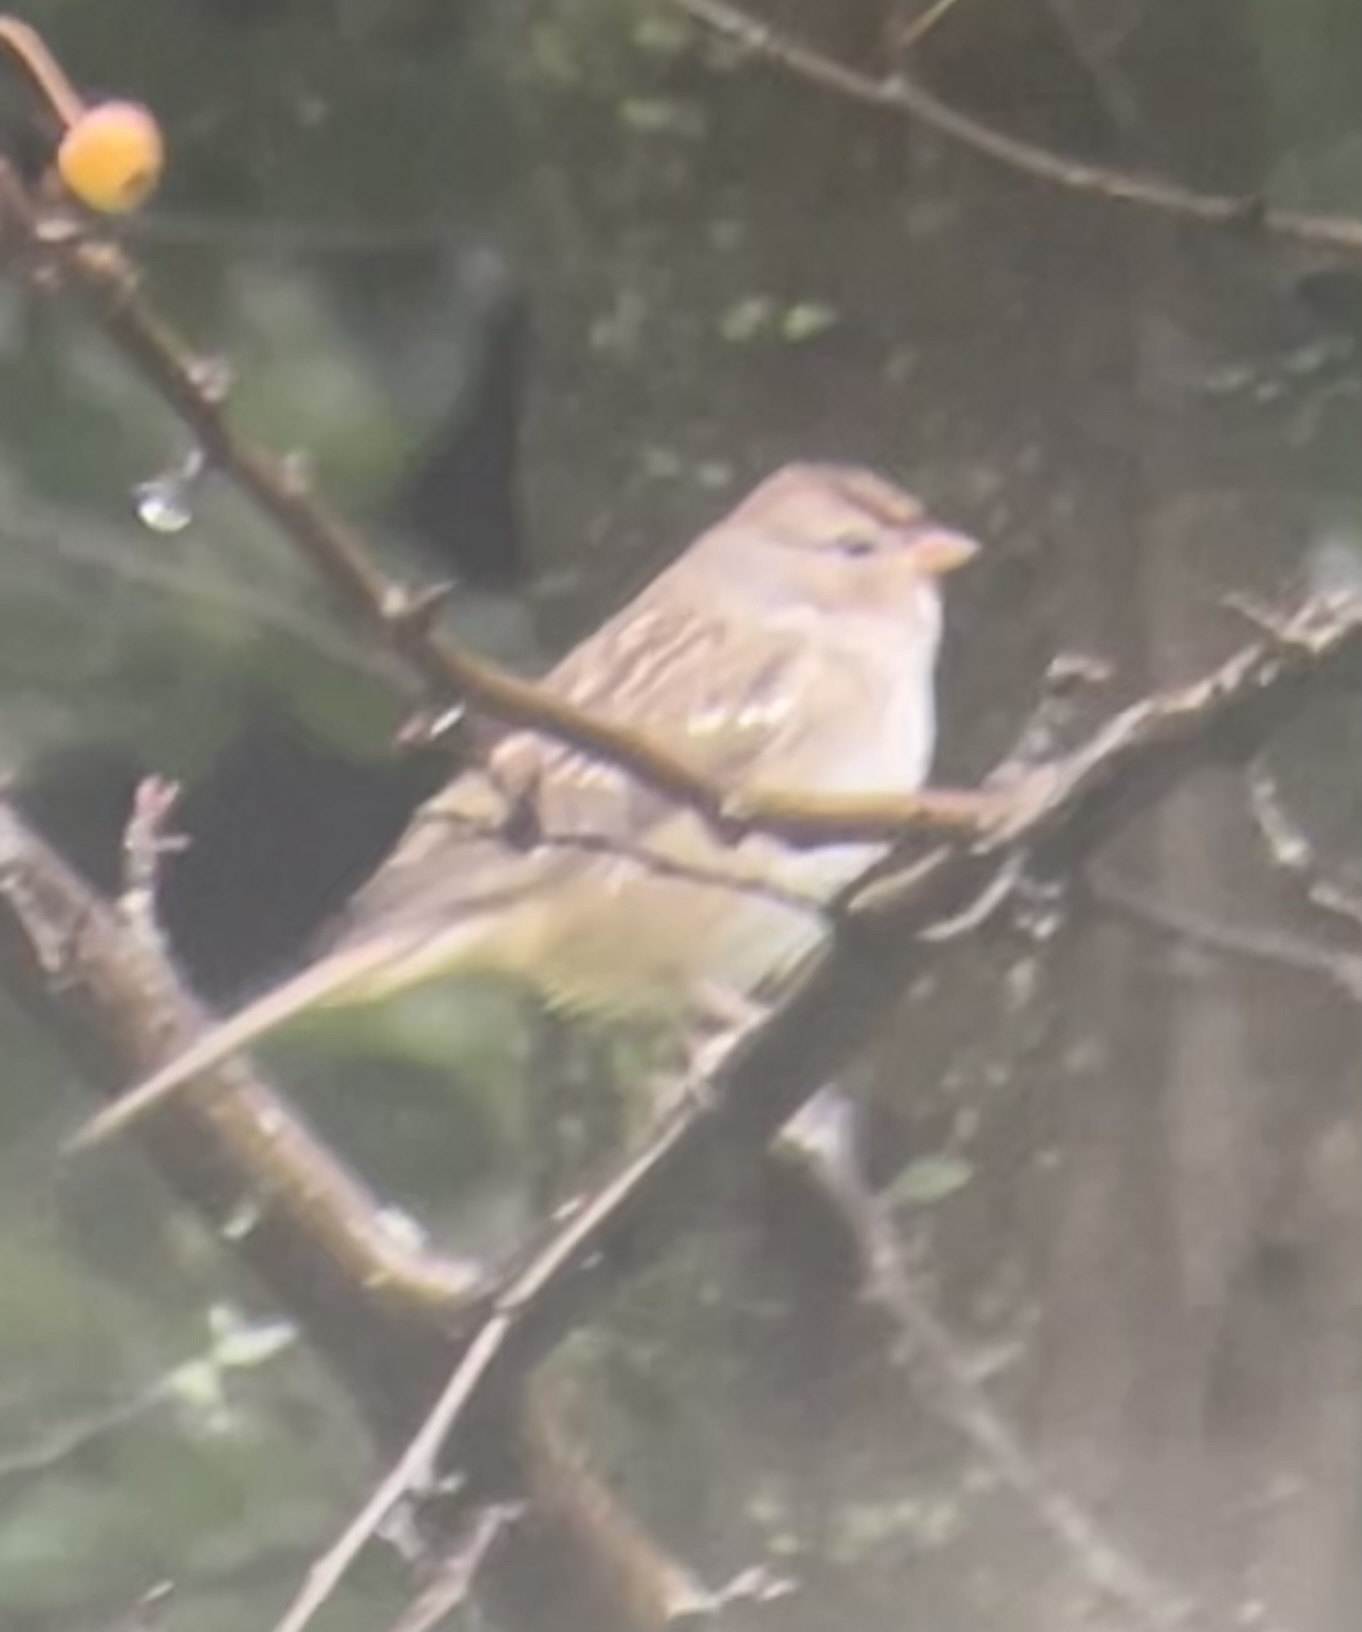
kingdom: Animalia
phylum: Chordata
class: Aves
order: Passeriformes
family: Passerellidae
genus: Zonotrichia
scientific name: Zonotrichia leucophrys
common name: White-crowned sparrow
